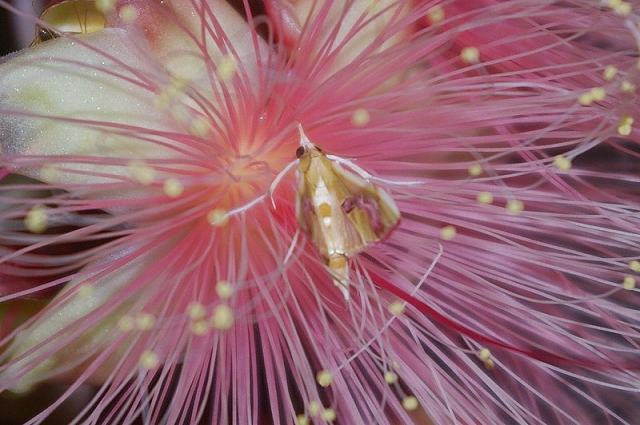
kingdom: Plantae
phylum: Tracheophyta
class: Magnoliopsida
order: Ericales
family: Lecythidaceae
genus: Barringtonia
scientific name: Barringtonia racemosa
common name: Brackwater mangrove
